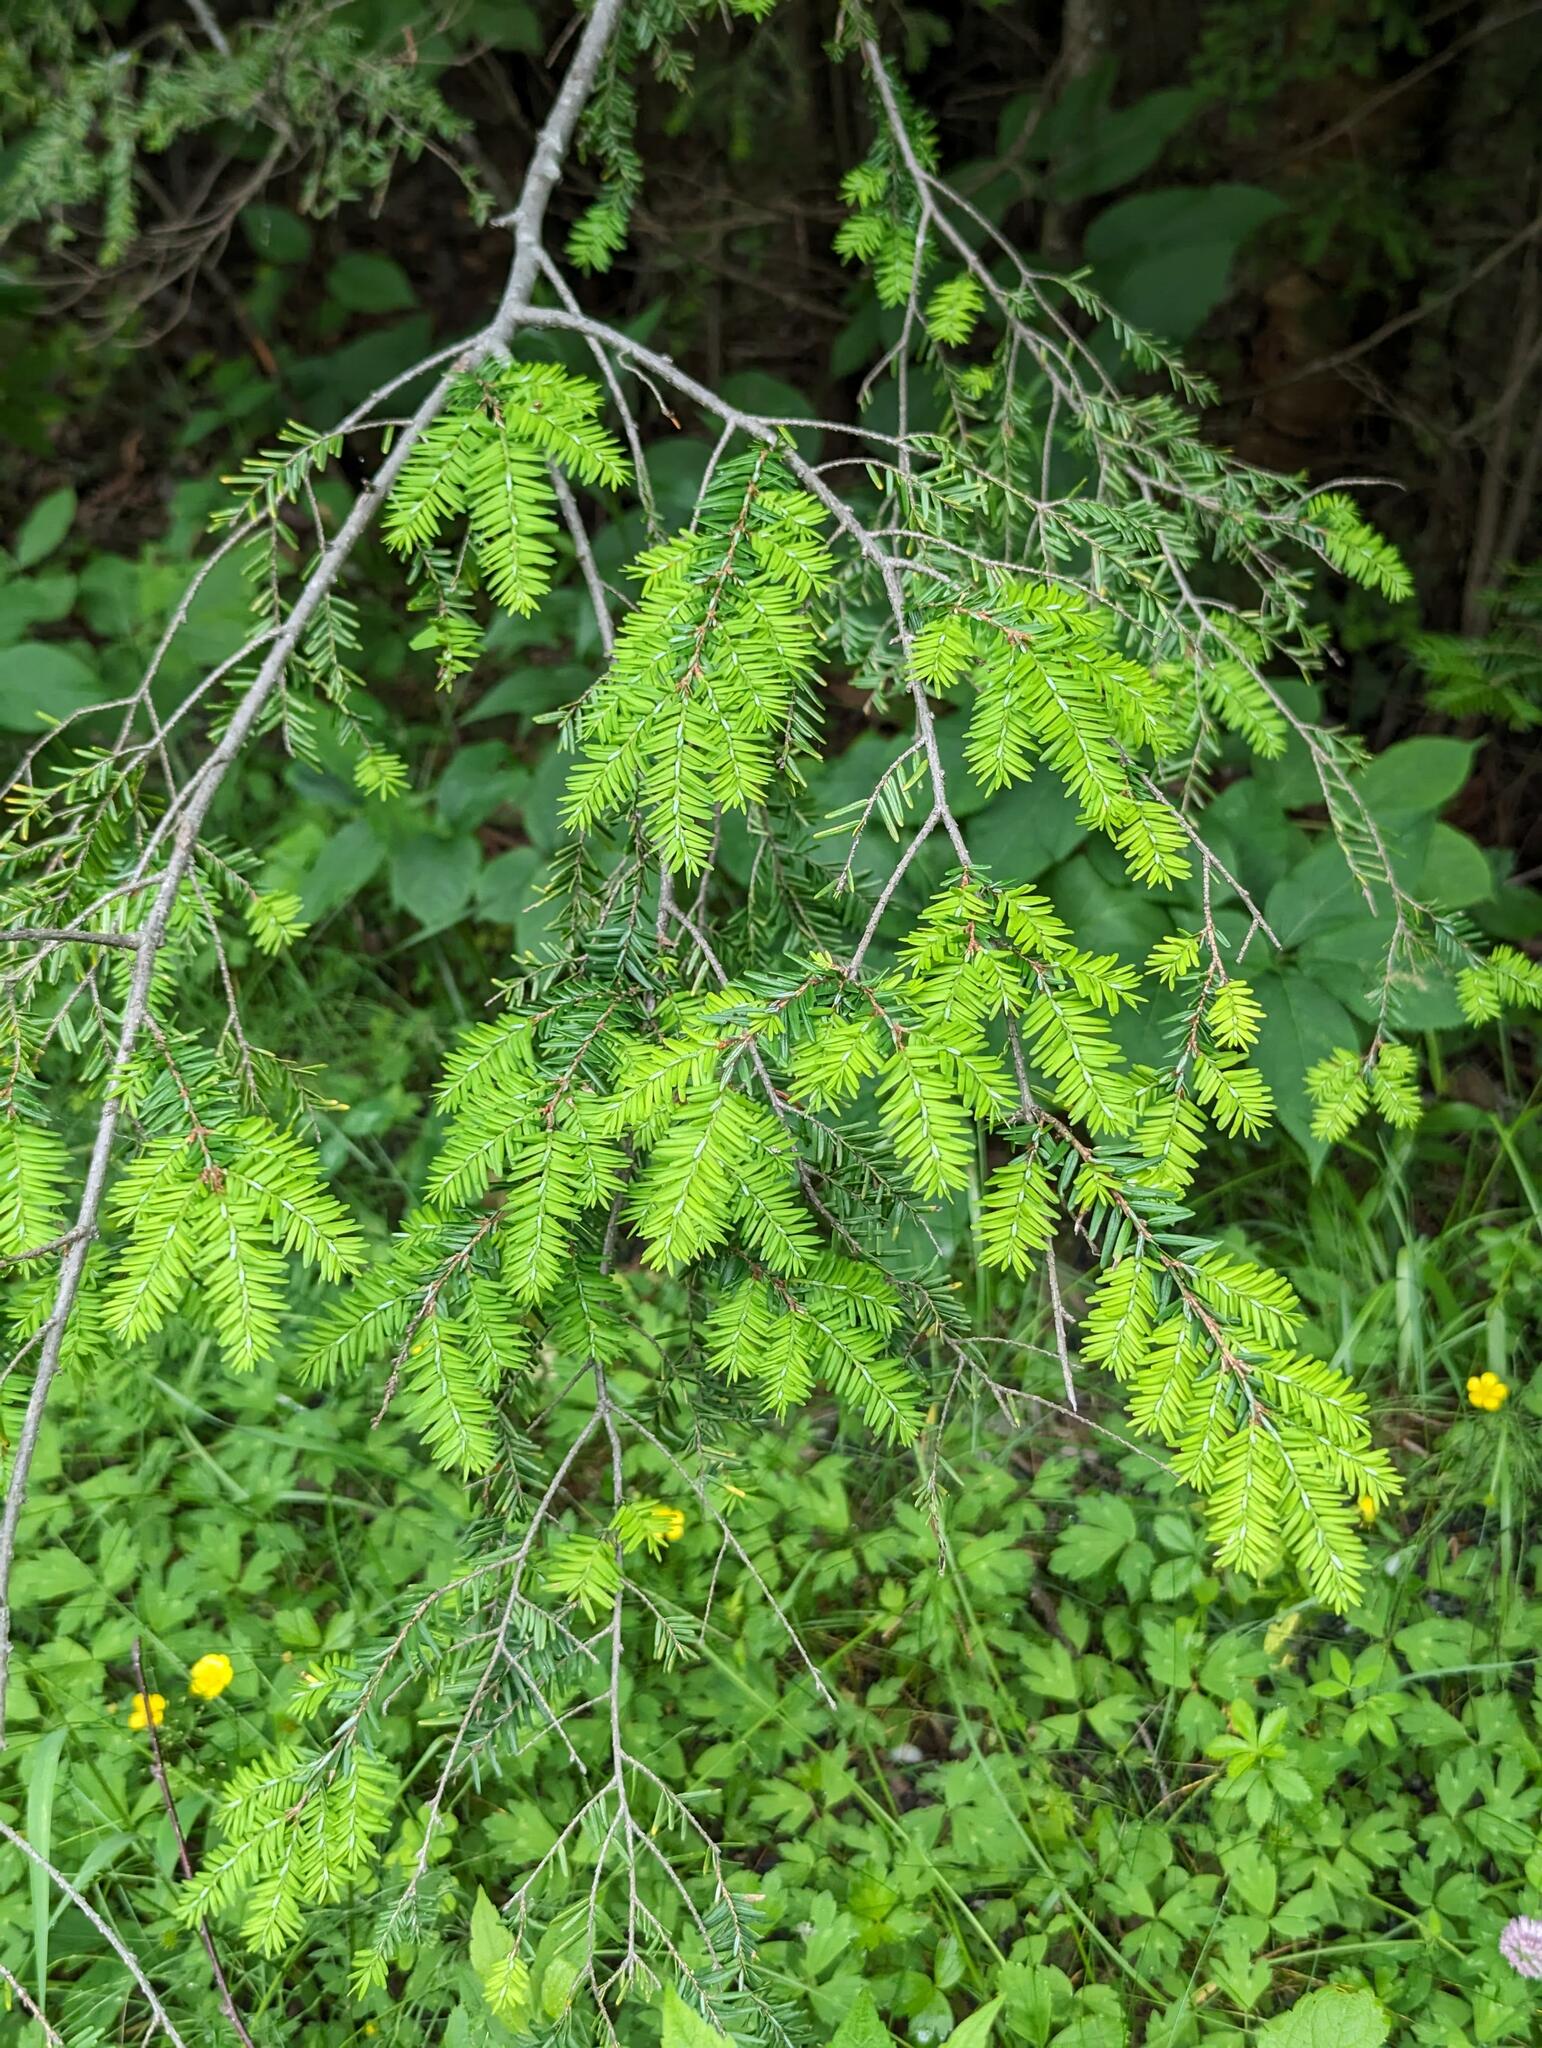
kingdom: Plantae
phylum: Tracheophyta
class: Pinopsida
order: Pinales
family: Pinaceae
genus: Tsuga
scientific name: Tsuga canadensis
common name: Eastern hemlock
